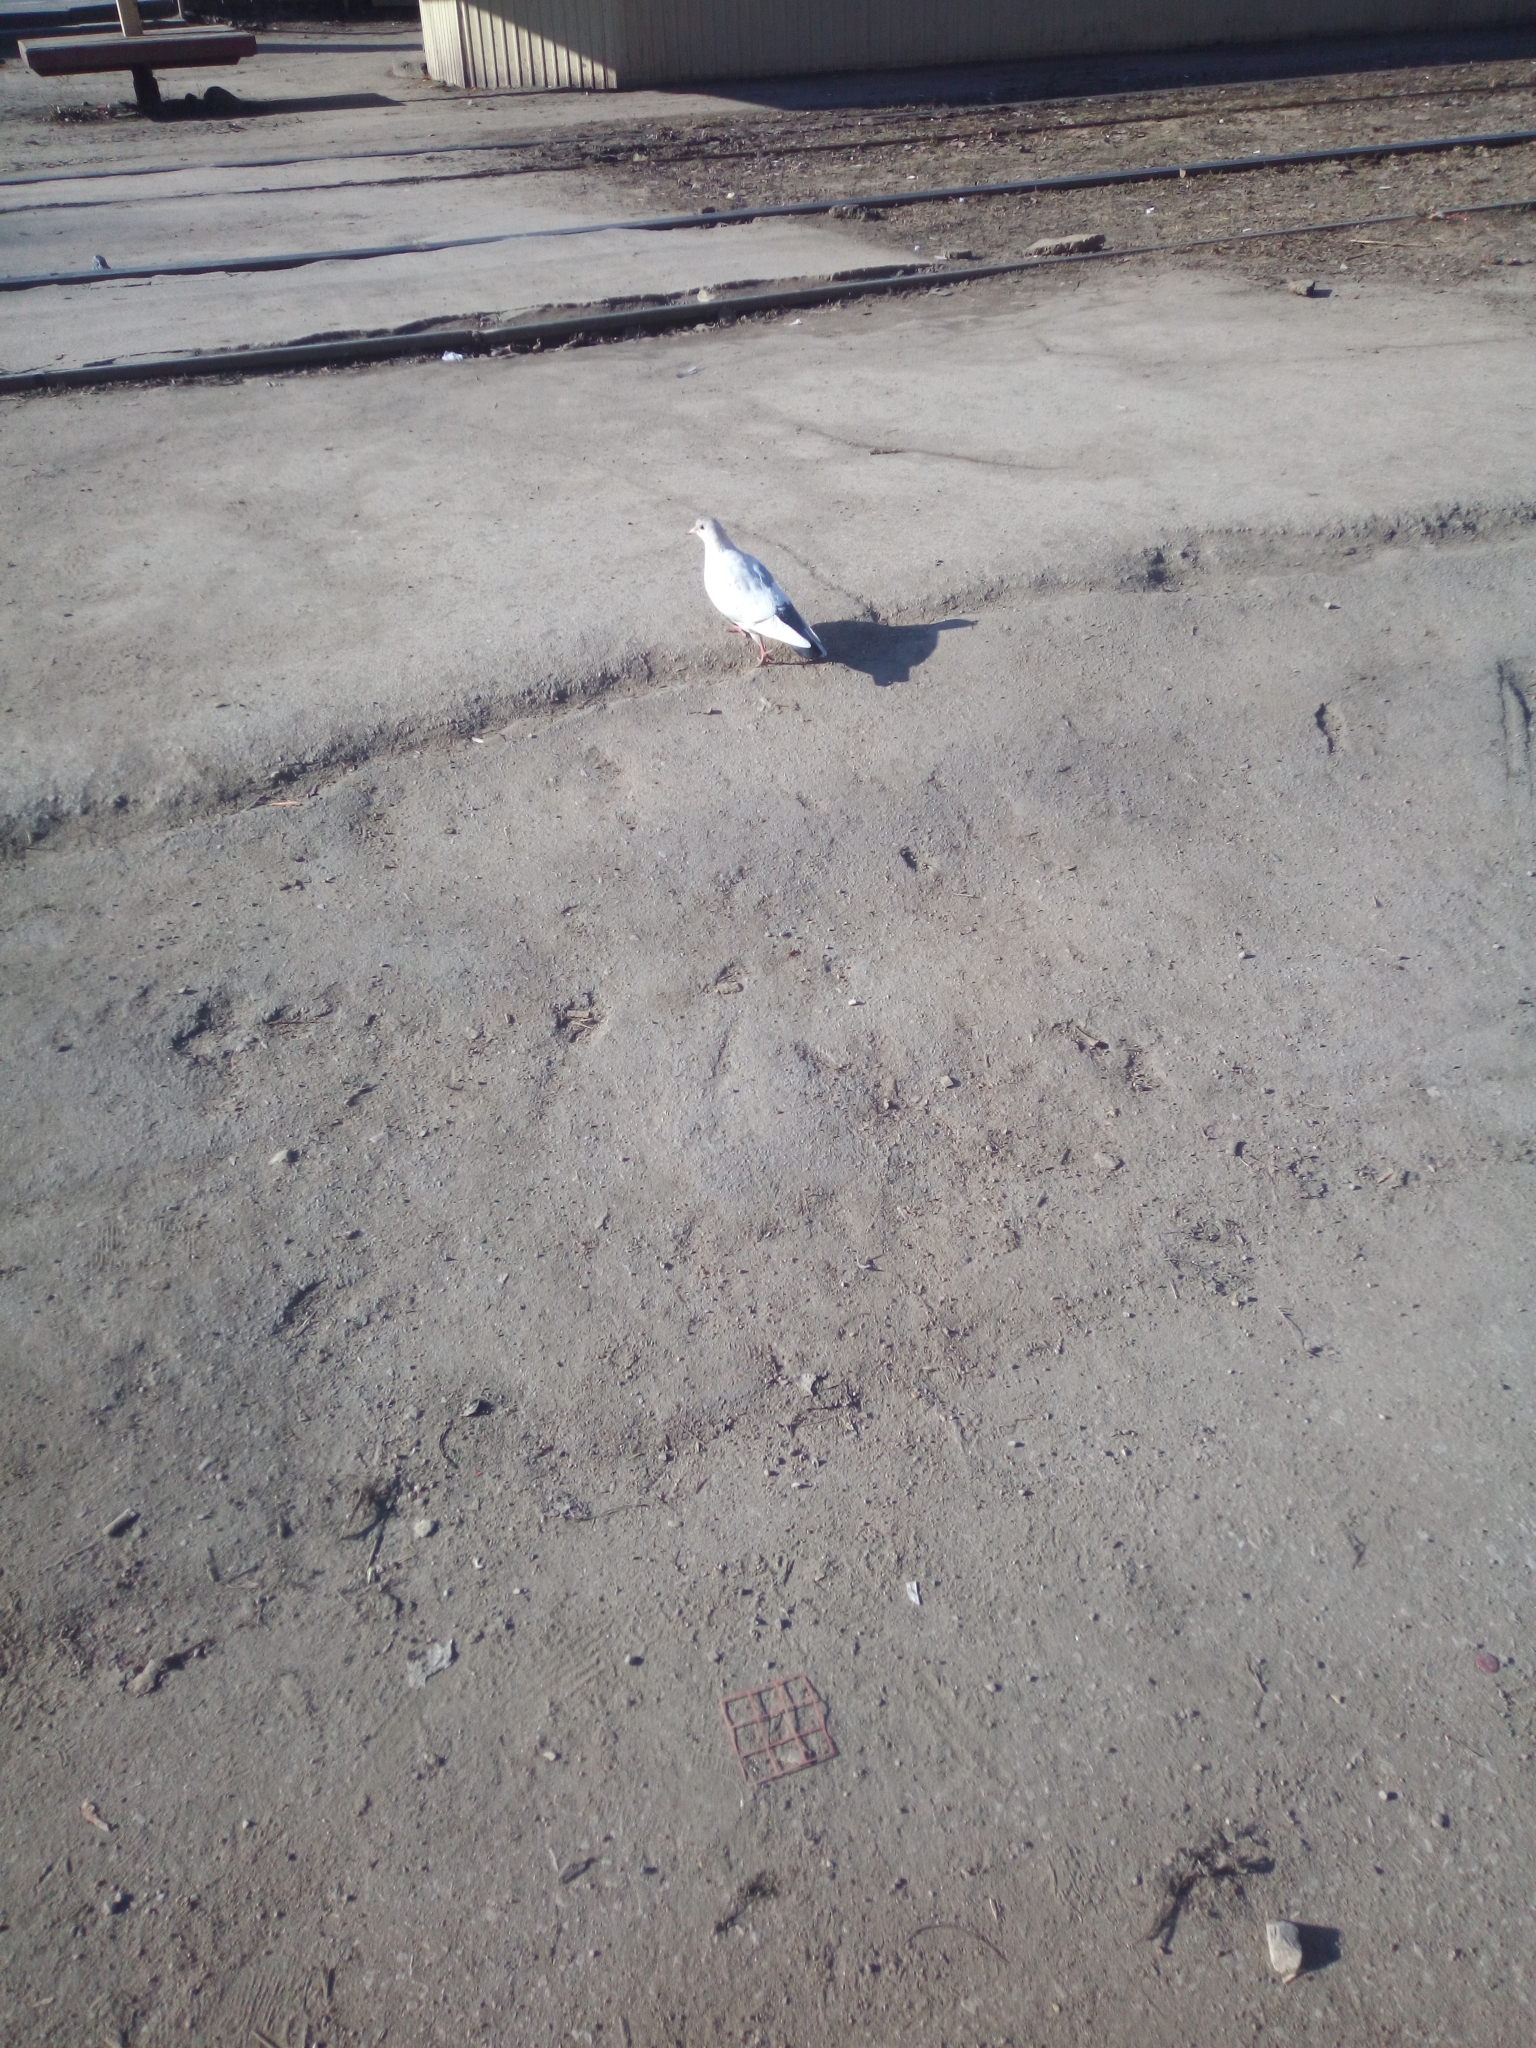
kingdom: Animalia
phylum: Chordata
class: Aves
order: Columbiformes
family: Columbidae
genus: Columba
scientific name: Columba livia
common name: Rock pigeon
